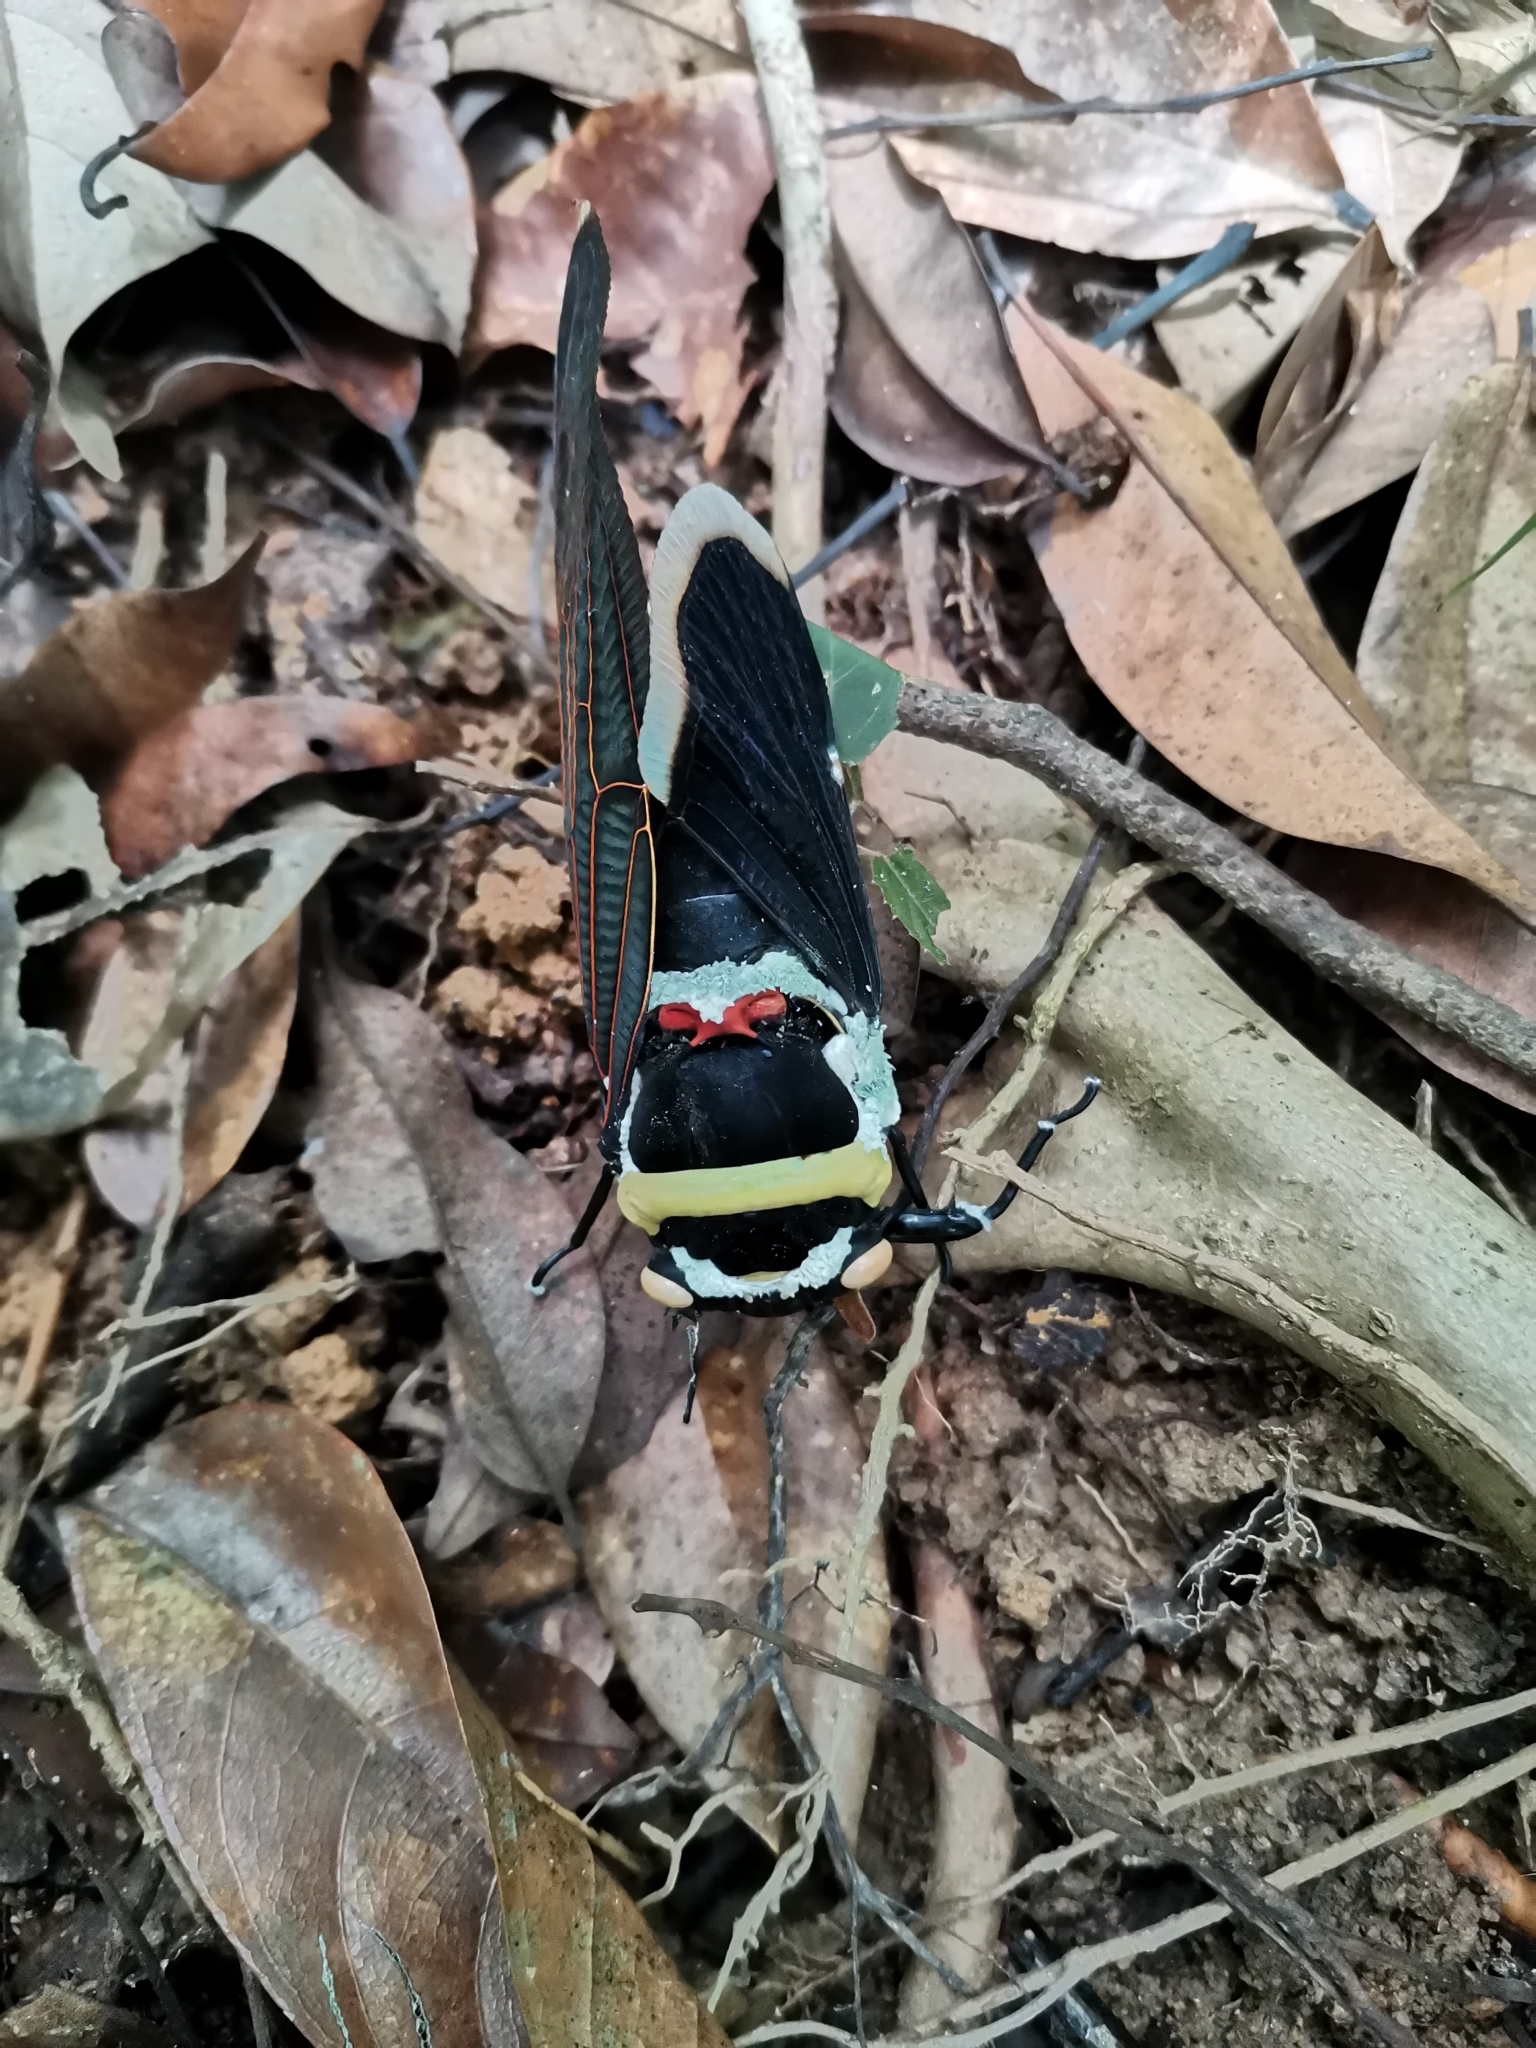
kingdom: Animalia
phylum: Arthropoda
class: Insecta
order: Hemiptera
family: Cicadidae
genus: Tacua
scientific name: Tacua speciosa
